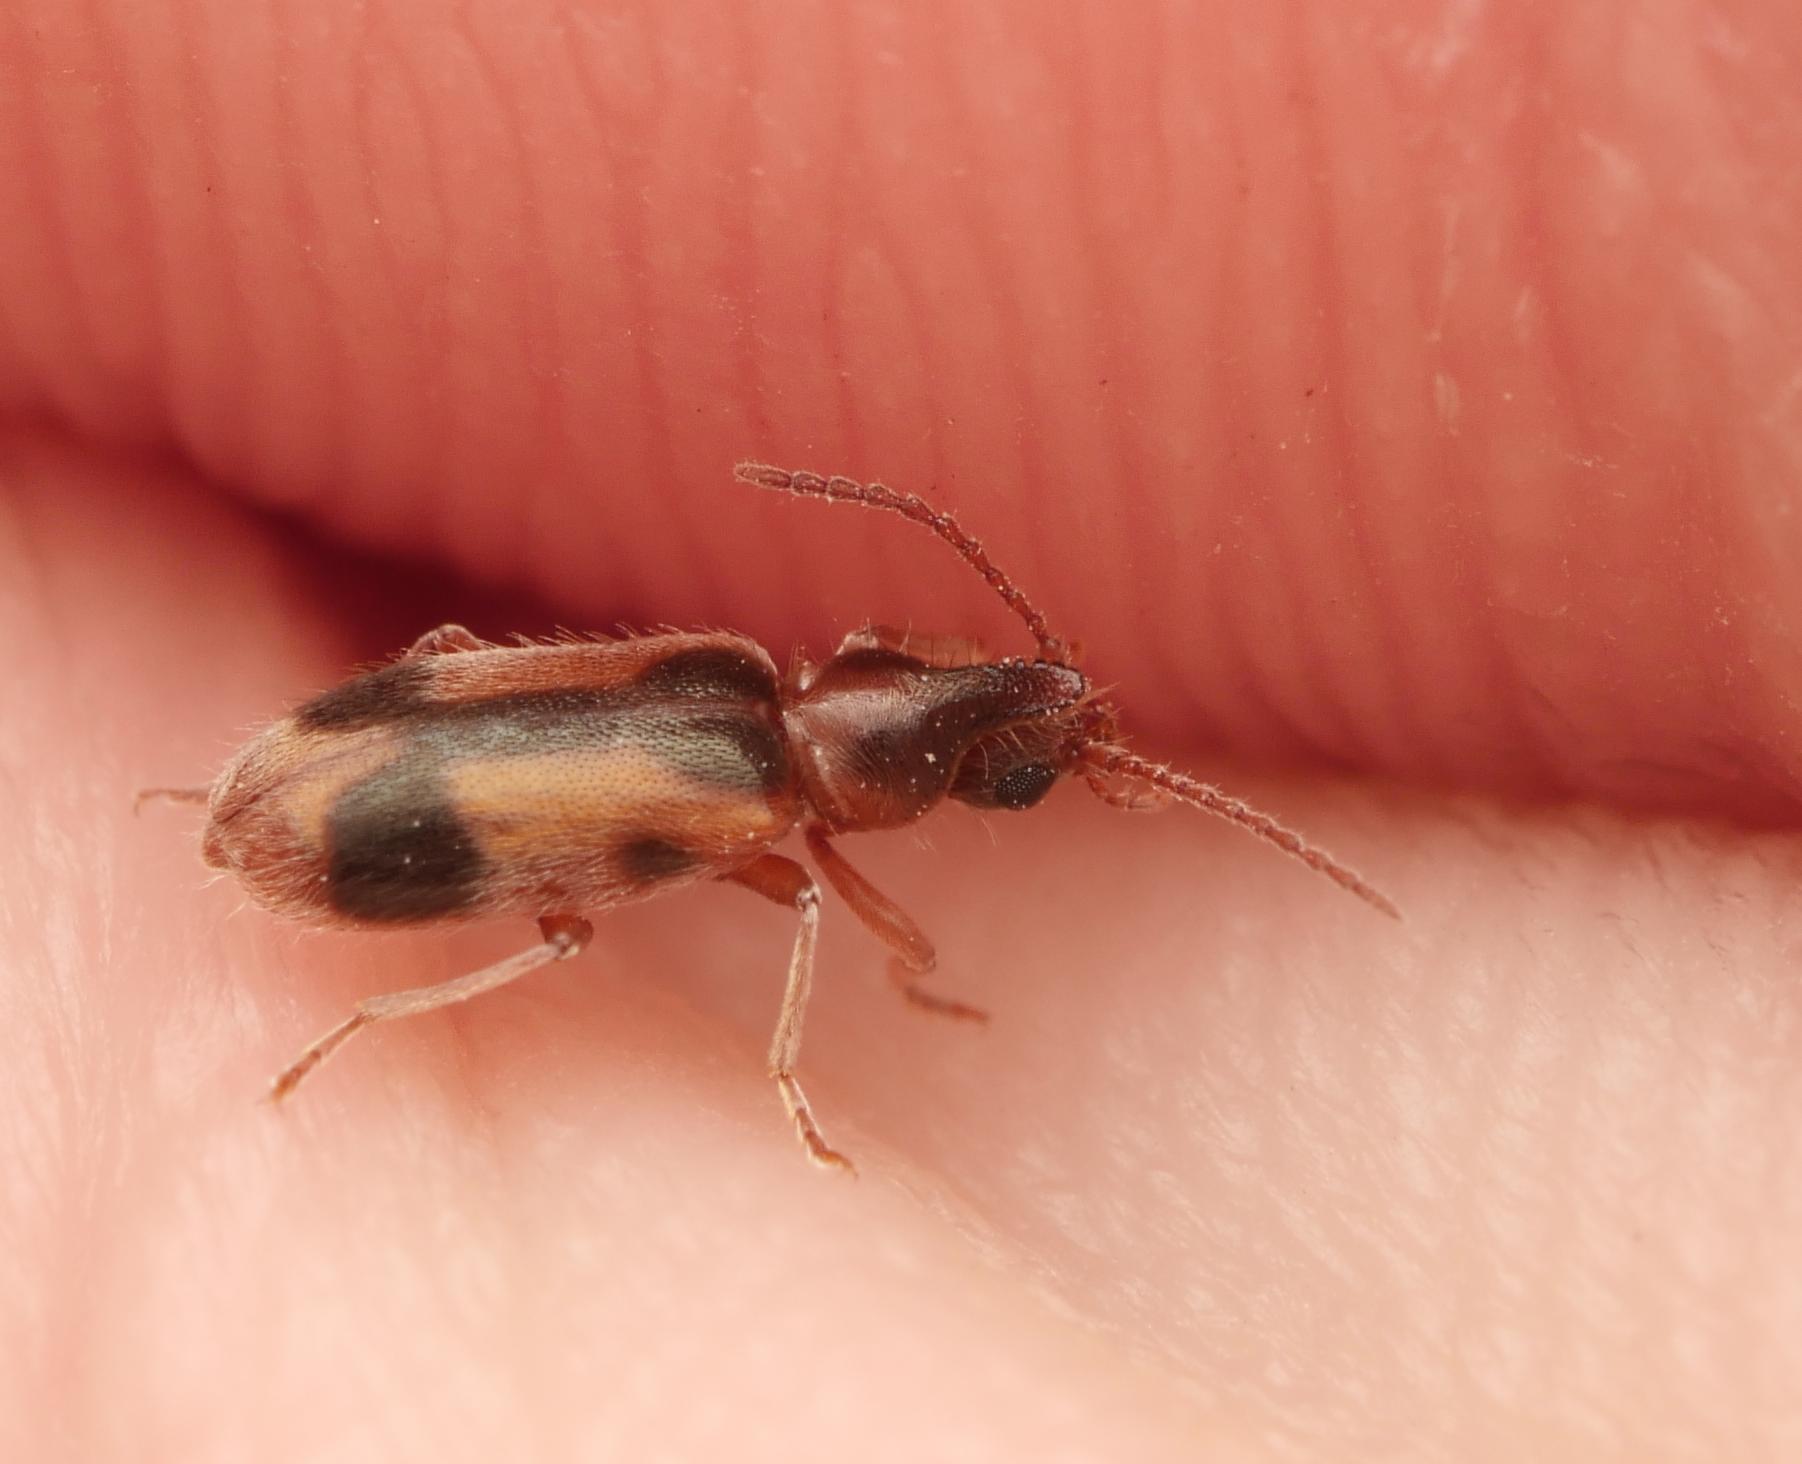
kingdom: Animalia
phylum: Arthropoda
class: Insecta
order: Coleoptera
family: Anthicidae
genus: Notoxus
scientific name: Notoxus monoceros
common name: Monoceros beetle
